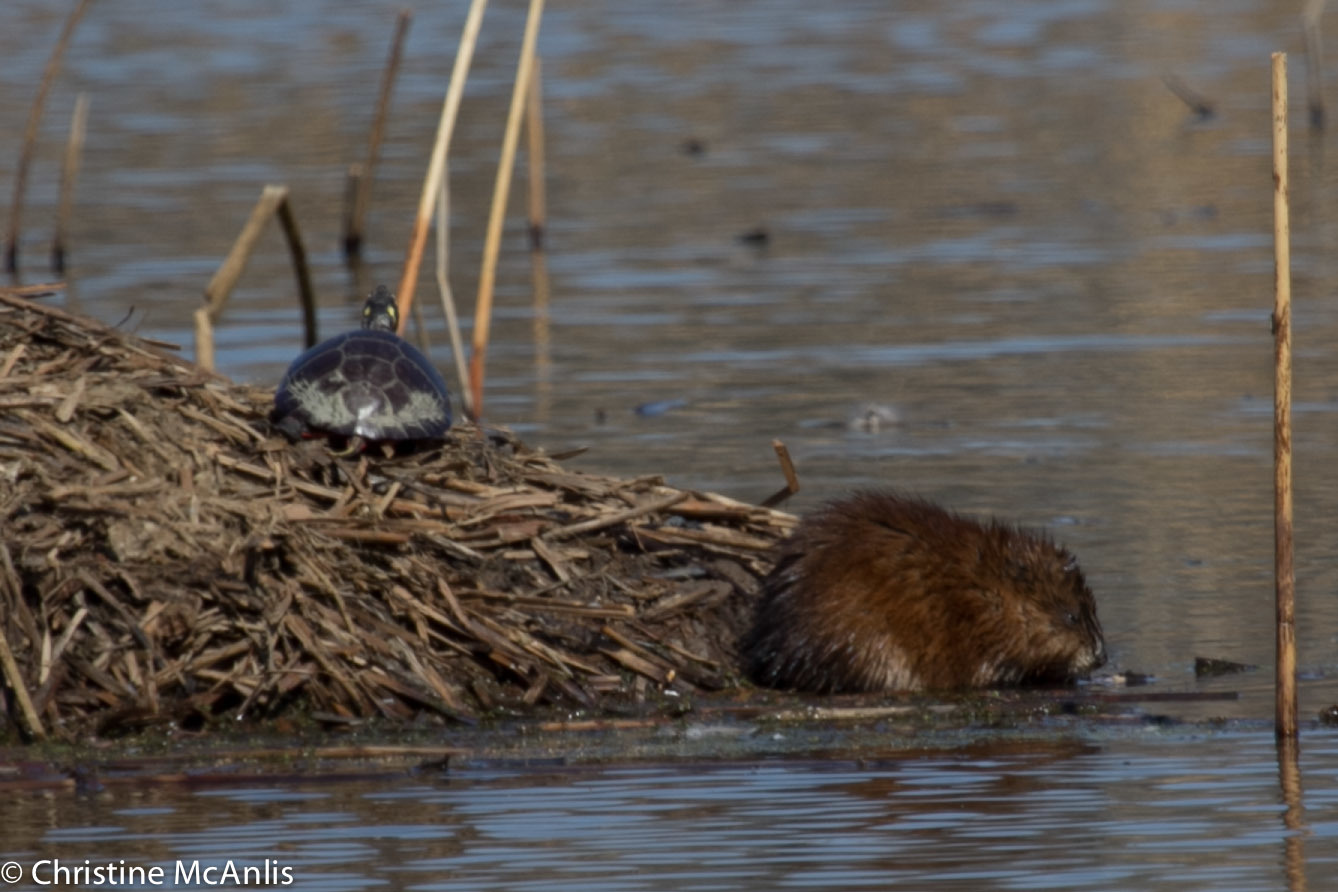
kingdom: Animalia
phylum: Chordata
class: Mammalia
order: Rodentia
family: Cricetidae
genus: Ondatra
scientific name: Ondatra zibethicus
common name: Muskrat
